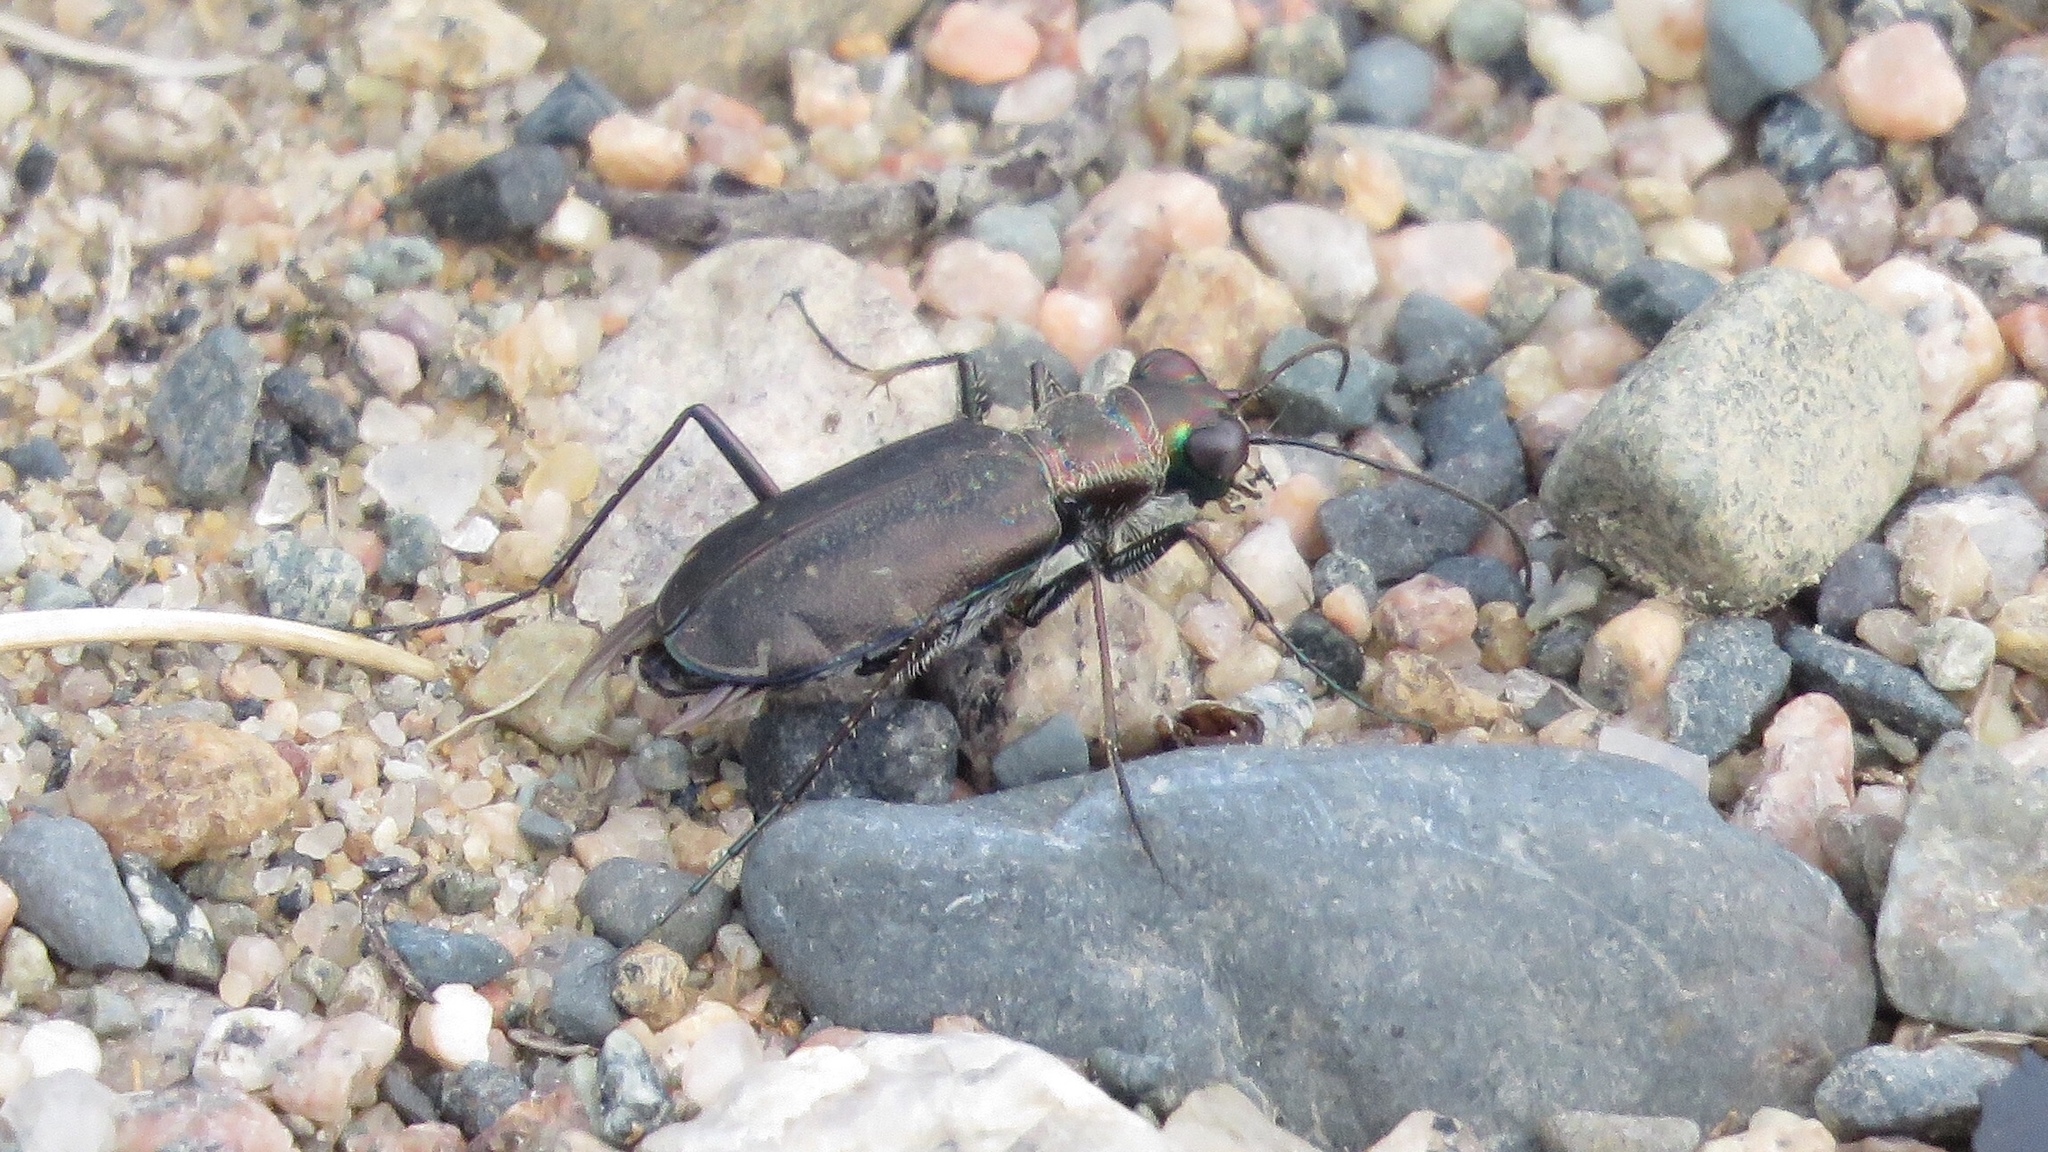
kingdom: Animalia
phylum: Arthropoda
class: Insecta
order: Coleoptera
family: Carabidae
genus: Cicindela
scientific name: Cicindela punctulata
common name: Punctured tiger beetle
